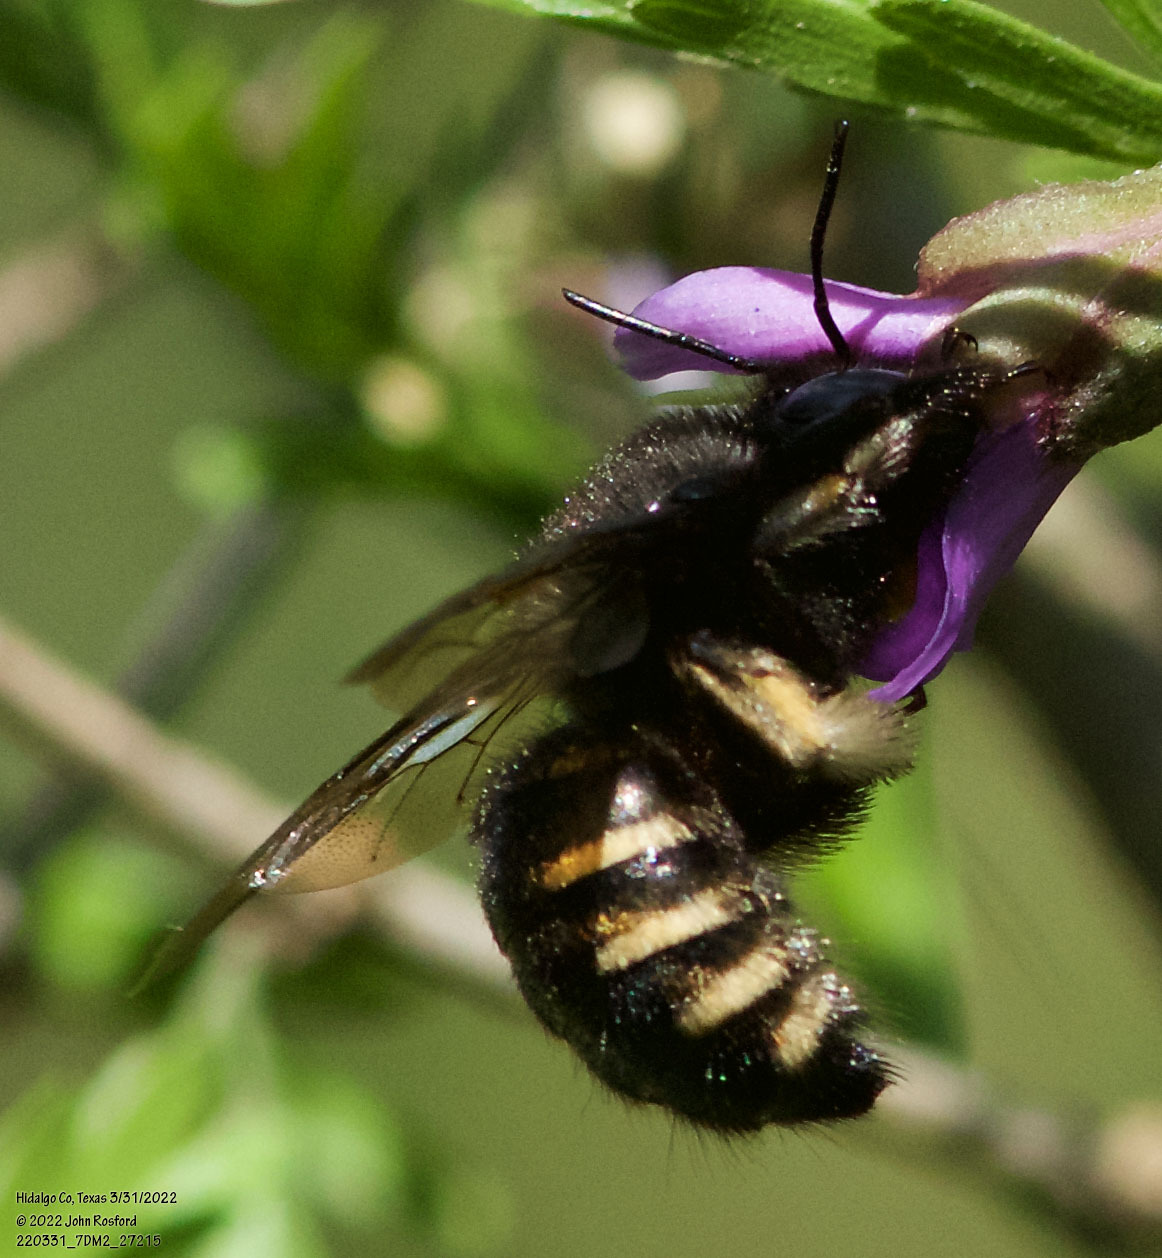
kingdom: Animalia
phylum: Arthropoda
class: Insecta
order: Hymenoptera
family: Apidae
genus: Xylocopa
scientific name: Xylocopa tabaniformis
